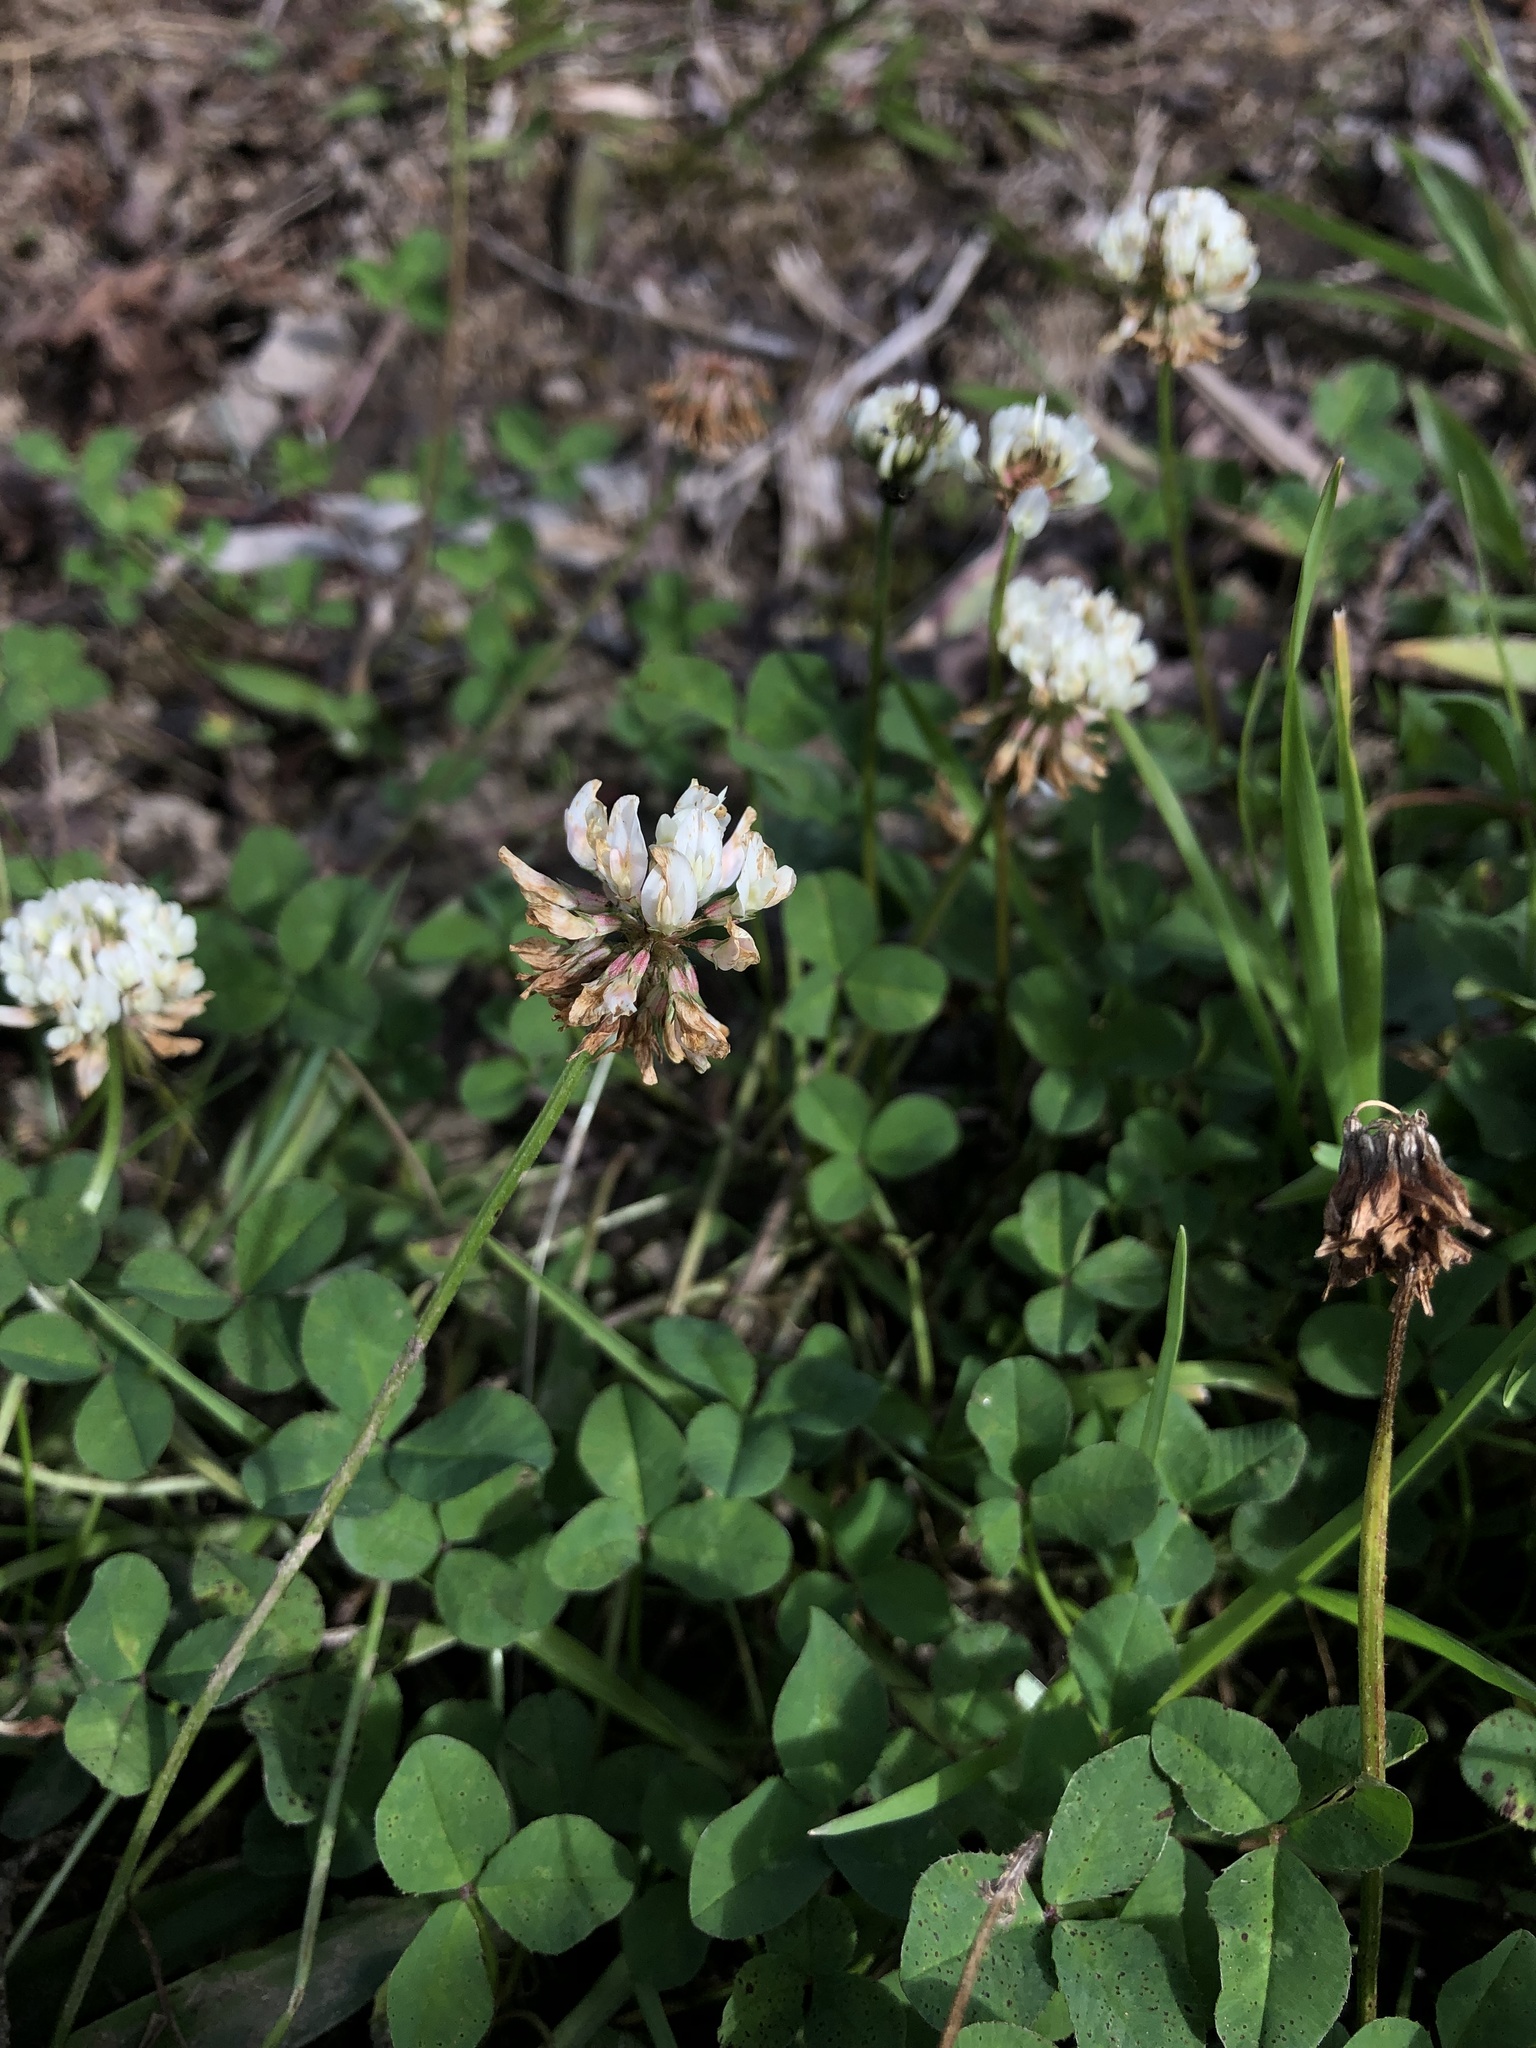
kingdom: Plantae
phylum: Tracheophyta
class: Magnoliopsida
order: Fabales
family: Fabaceae
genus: Trifolium
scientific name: Trifolium repens
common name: White clover
